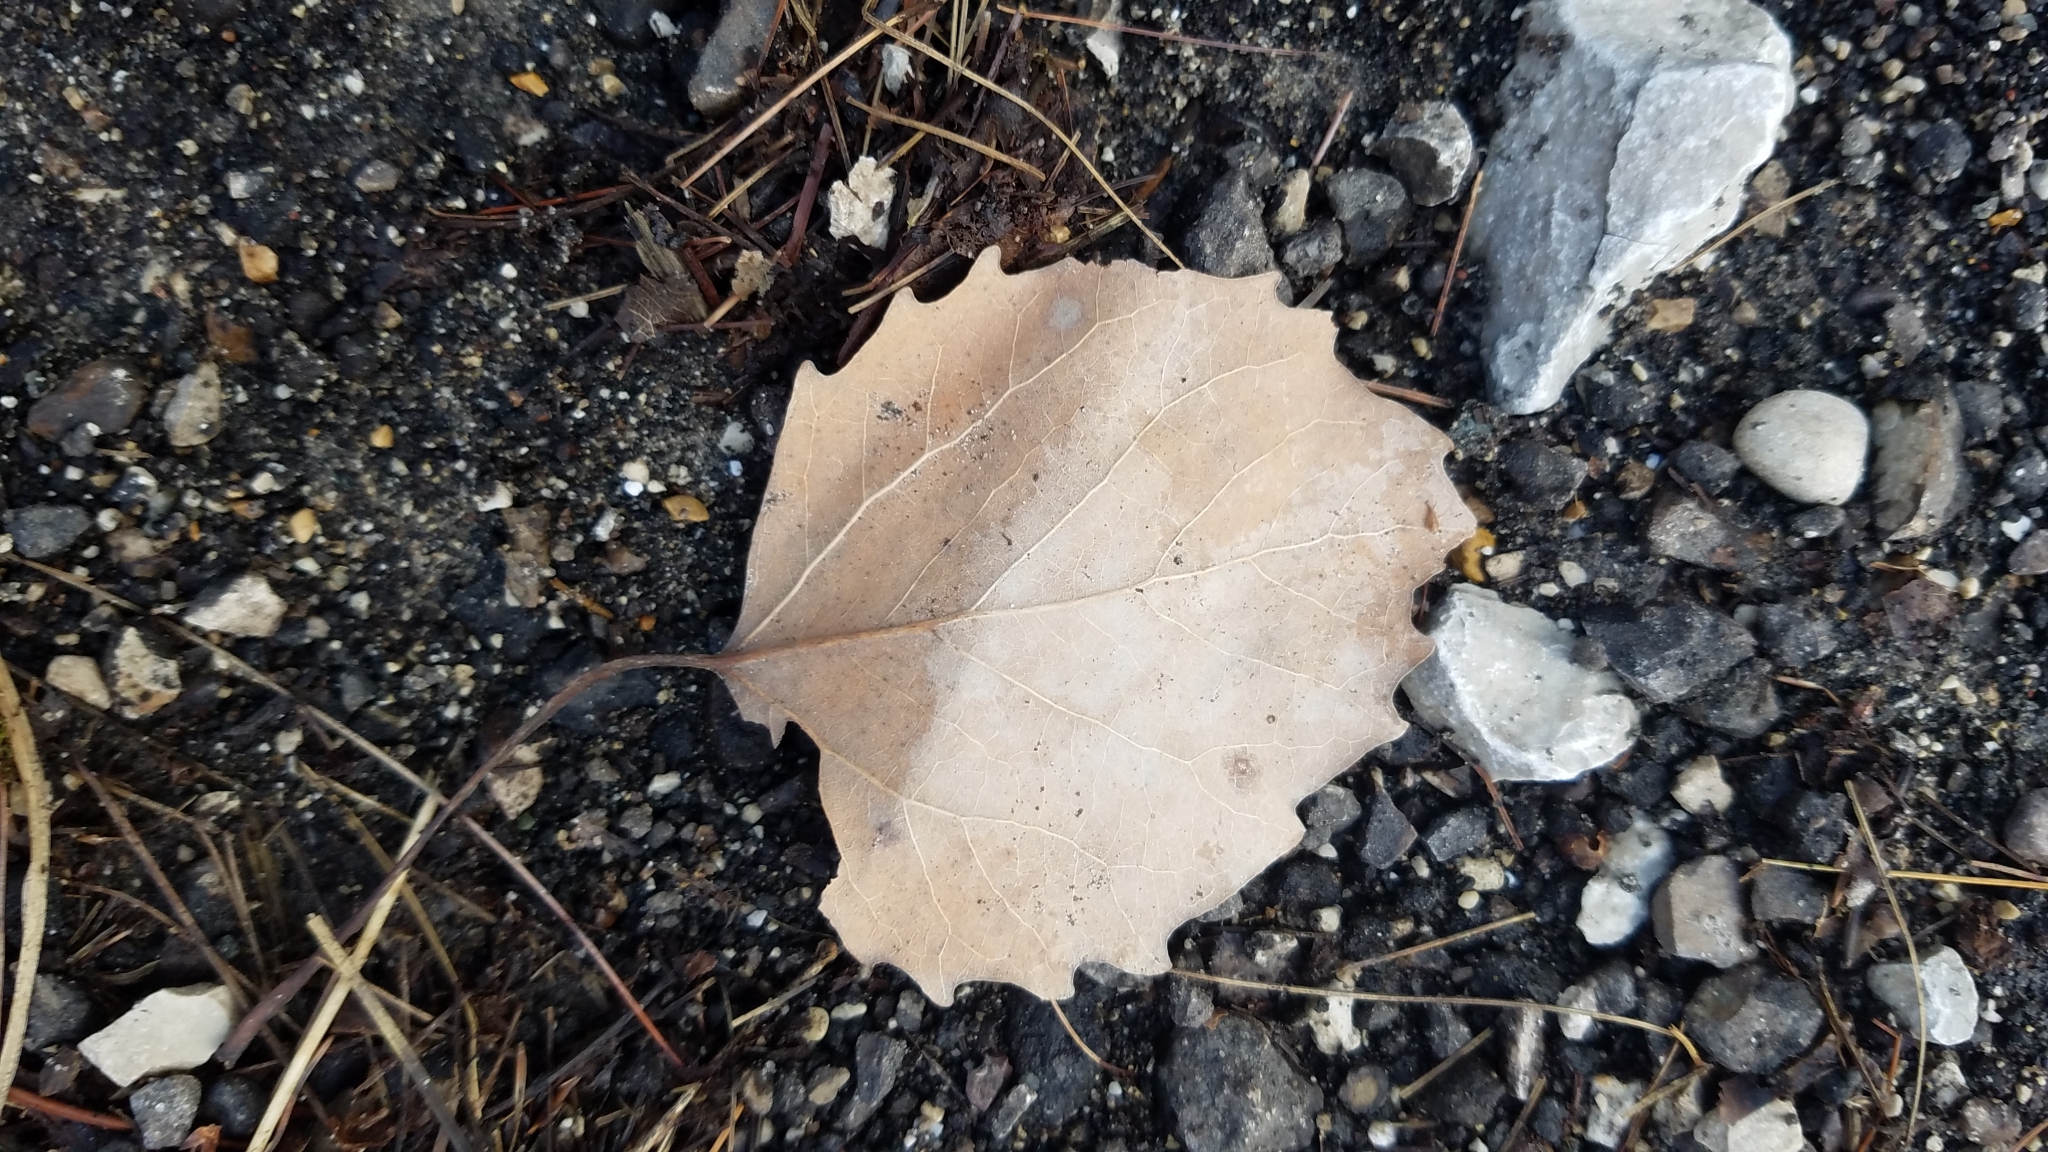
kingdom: Plantae
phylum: Tracheophyta
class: Magnoliopsida
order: Malpighiales
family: Salicaceae
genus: Populus
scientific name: Populus grandidentata
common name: Bigtooth aspen
